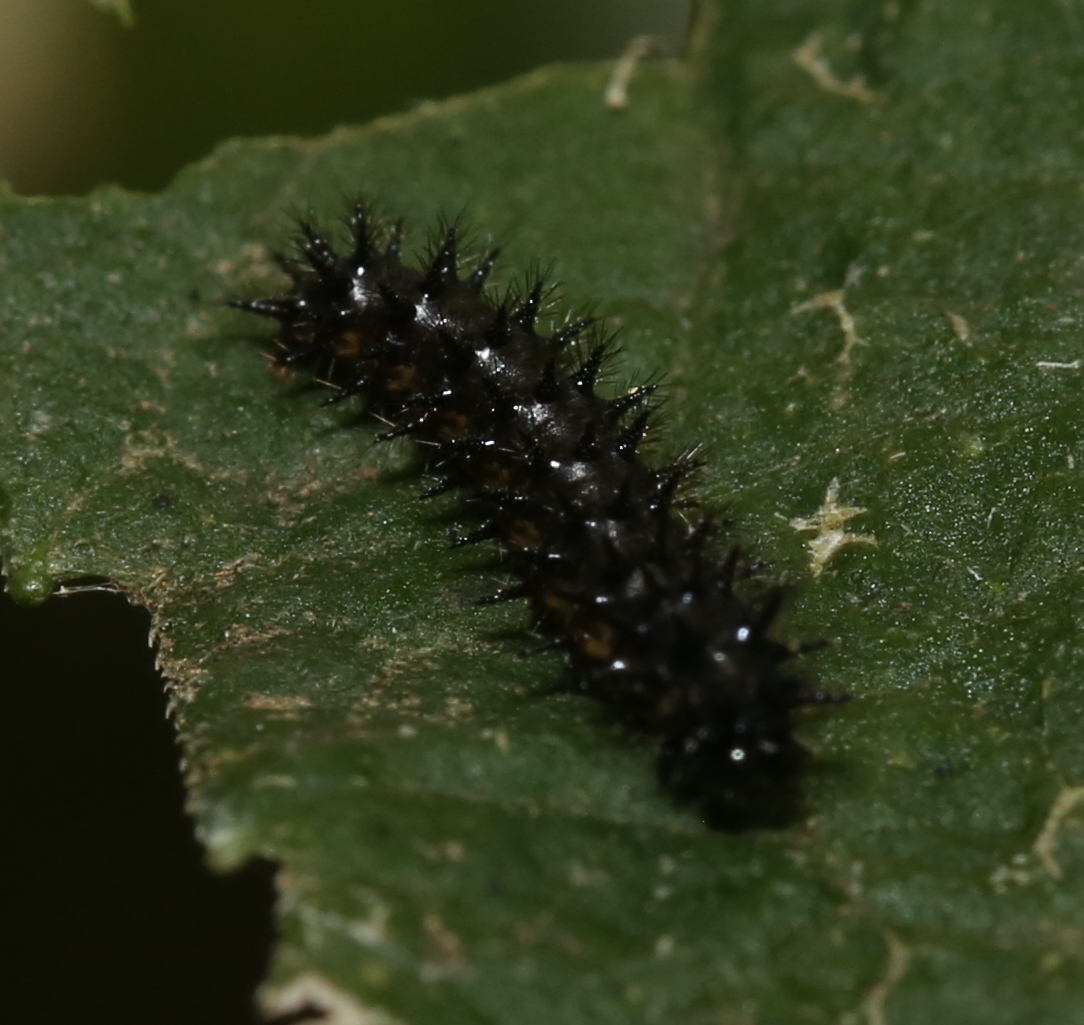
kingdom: Animalia
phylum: Arthropoda
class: Insecta
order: Lepidoptera
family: Nymphalidae
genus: Chlosyne
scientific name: Chlosyne nycteis
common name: Silvery checkerspot
